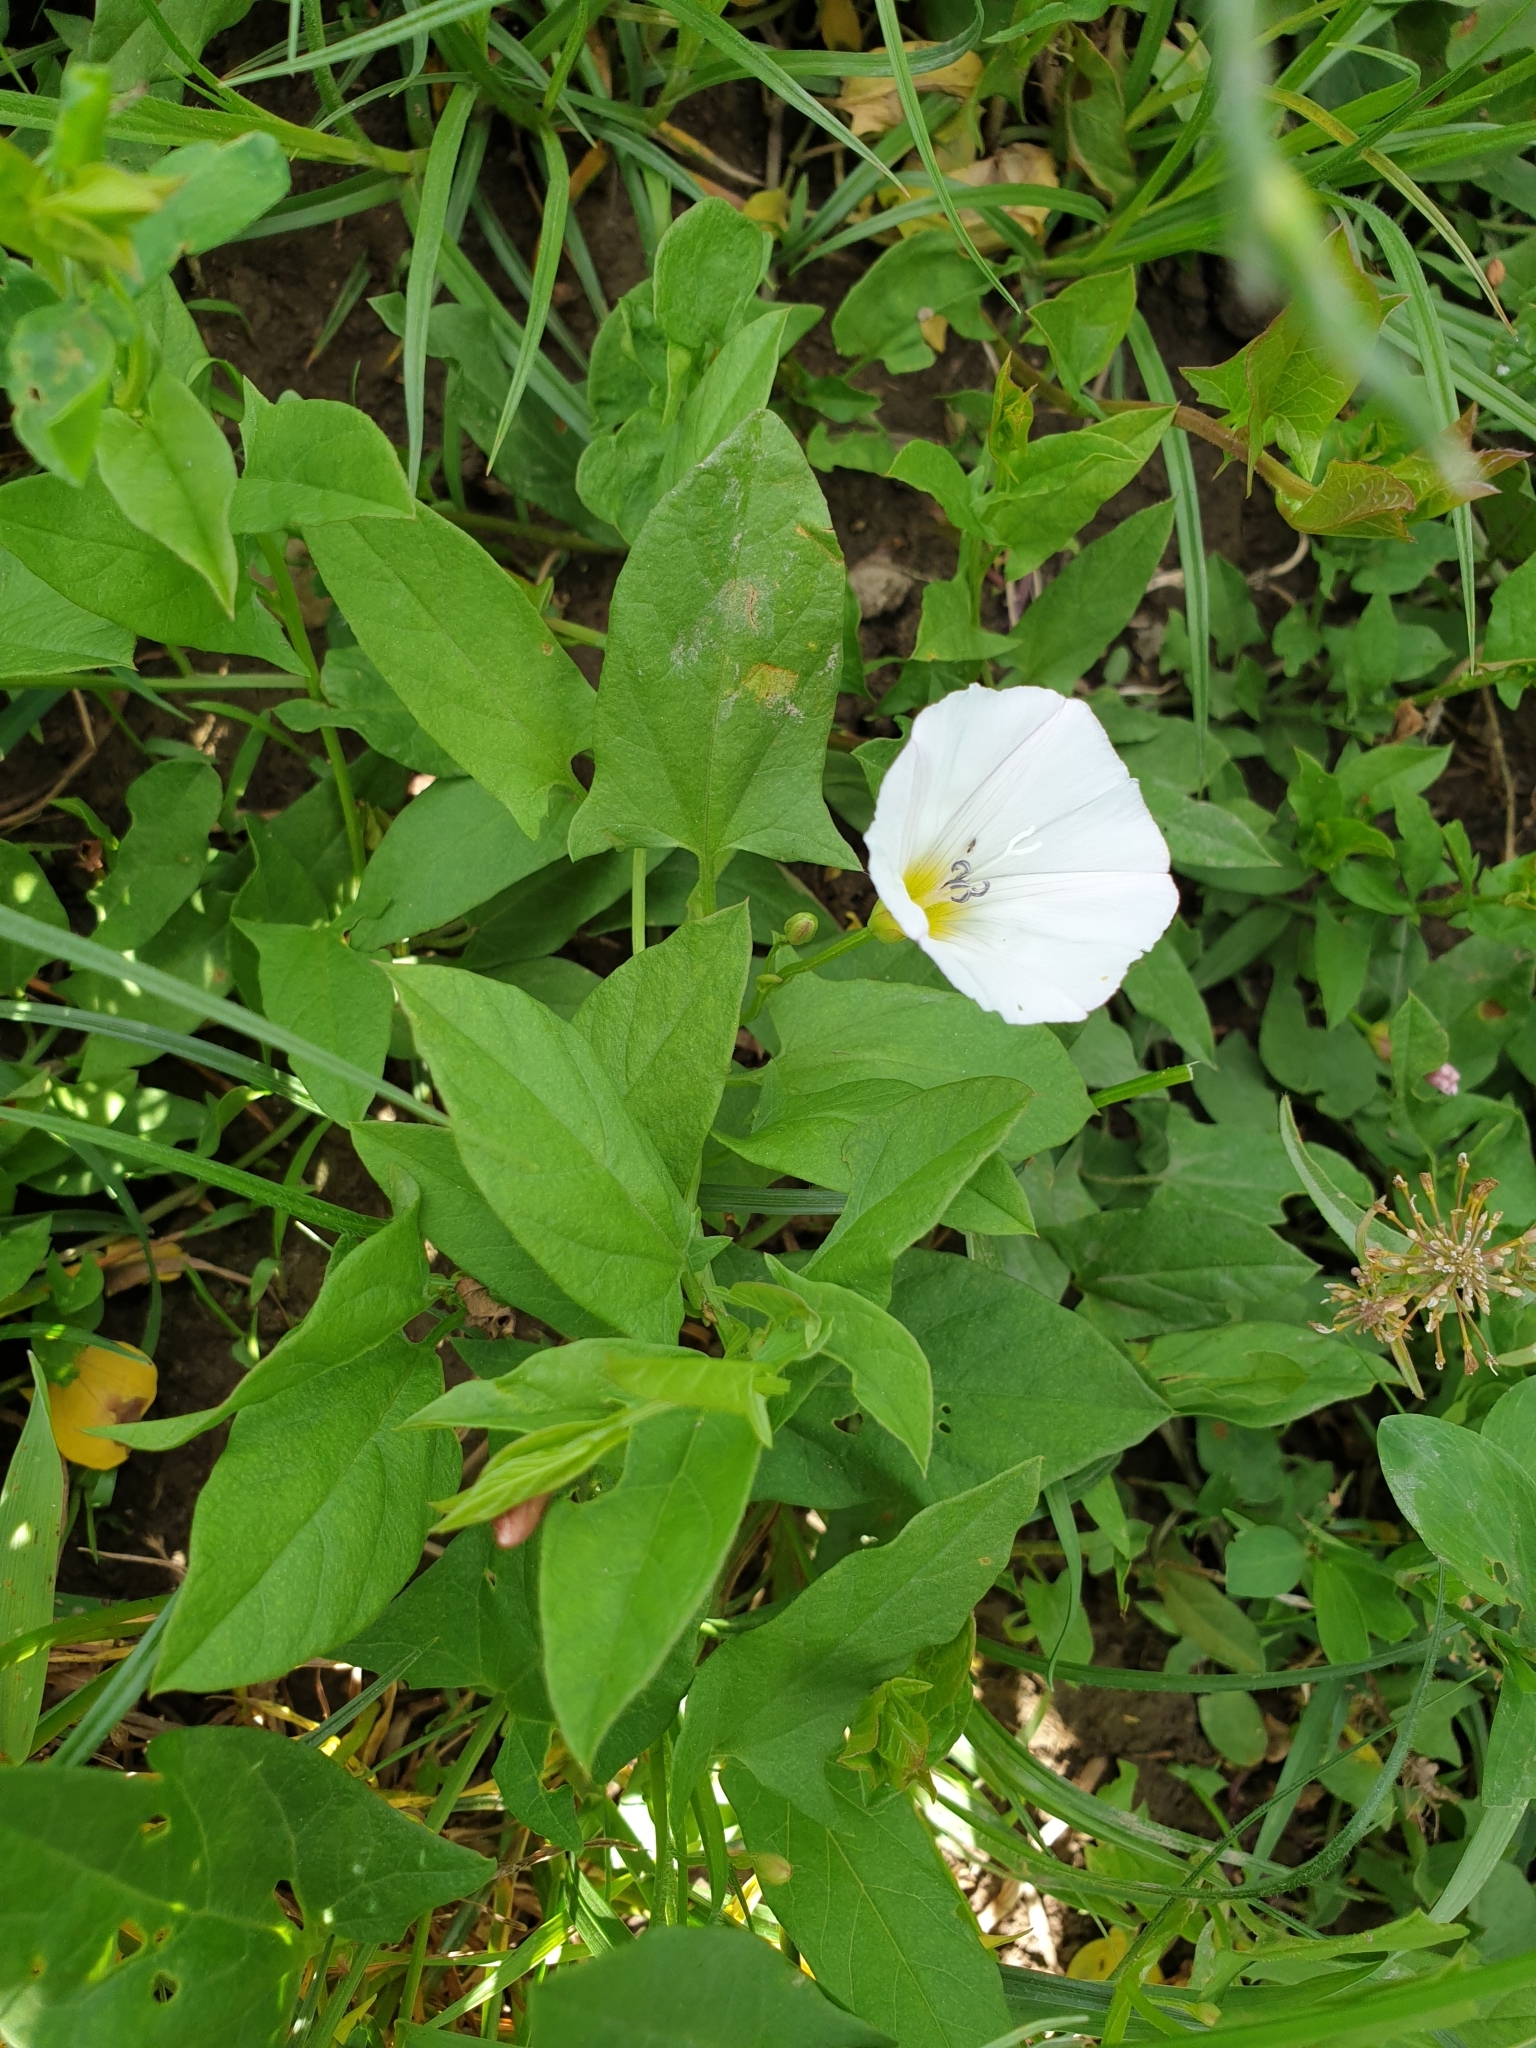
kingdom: Plantae
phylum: Tracheophyta
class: Magnoliopsida
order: Solanales
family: Convolvulaceae
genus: Convolvulus
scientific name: Convolvulus arvensis
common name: Field bindweed
